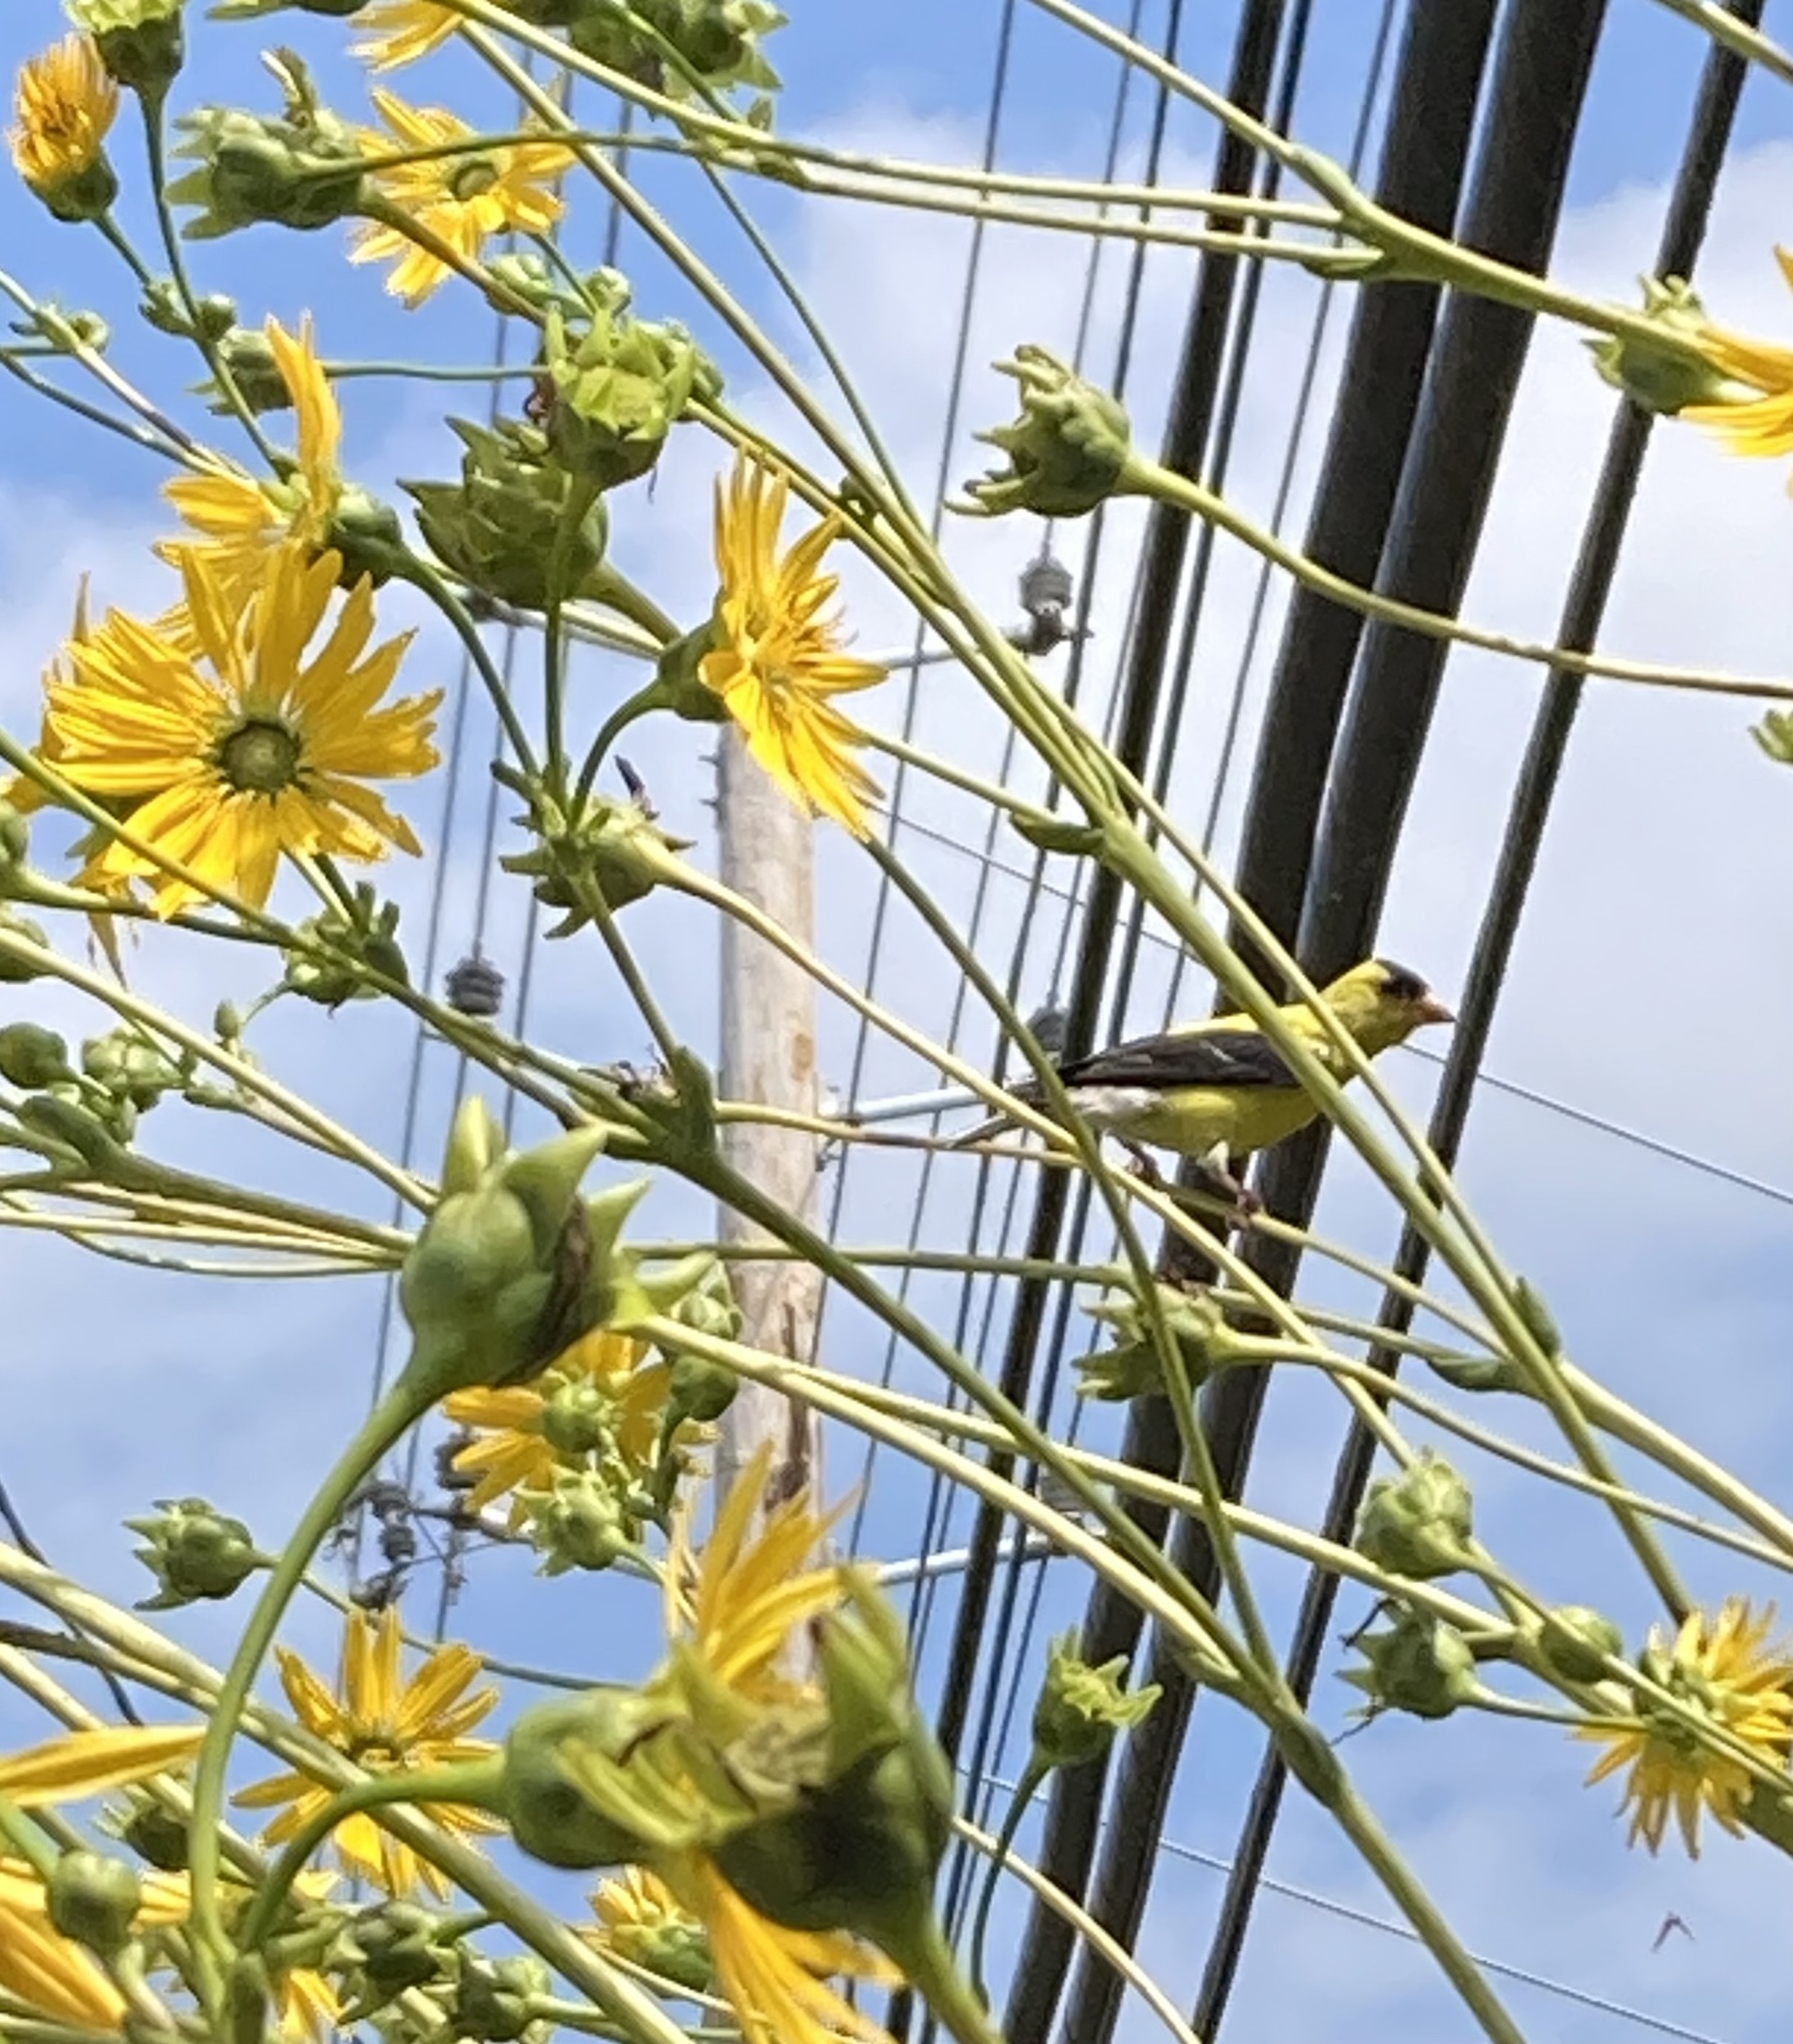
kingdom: Animalia
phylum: Chordata
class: Aves
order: Passeriformes
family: Fringillidae
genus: Spinus
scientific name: Spinus tristis
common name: American goldfinch
